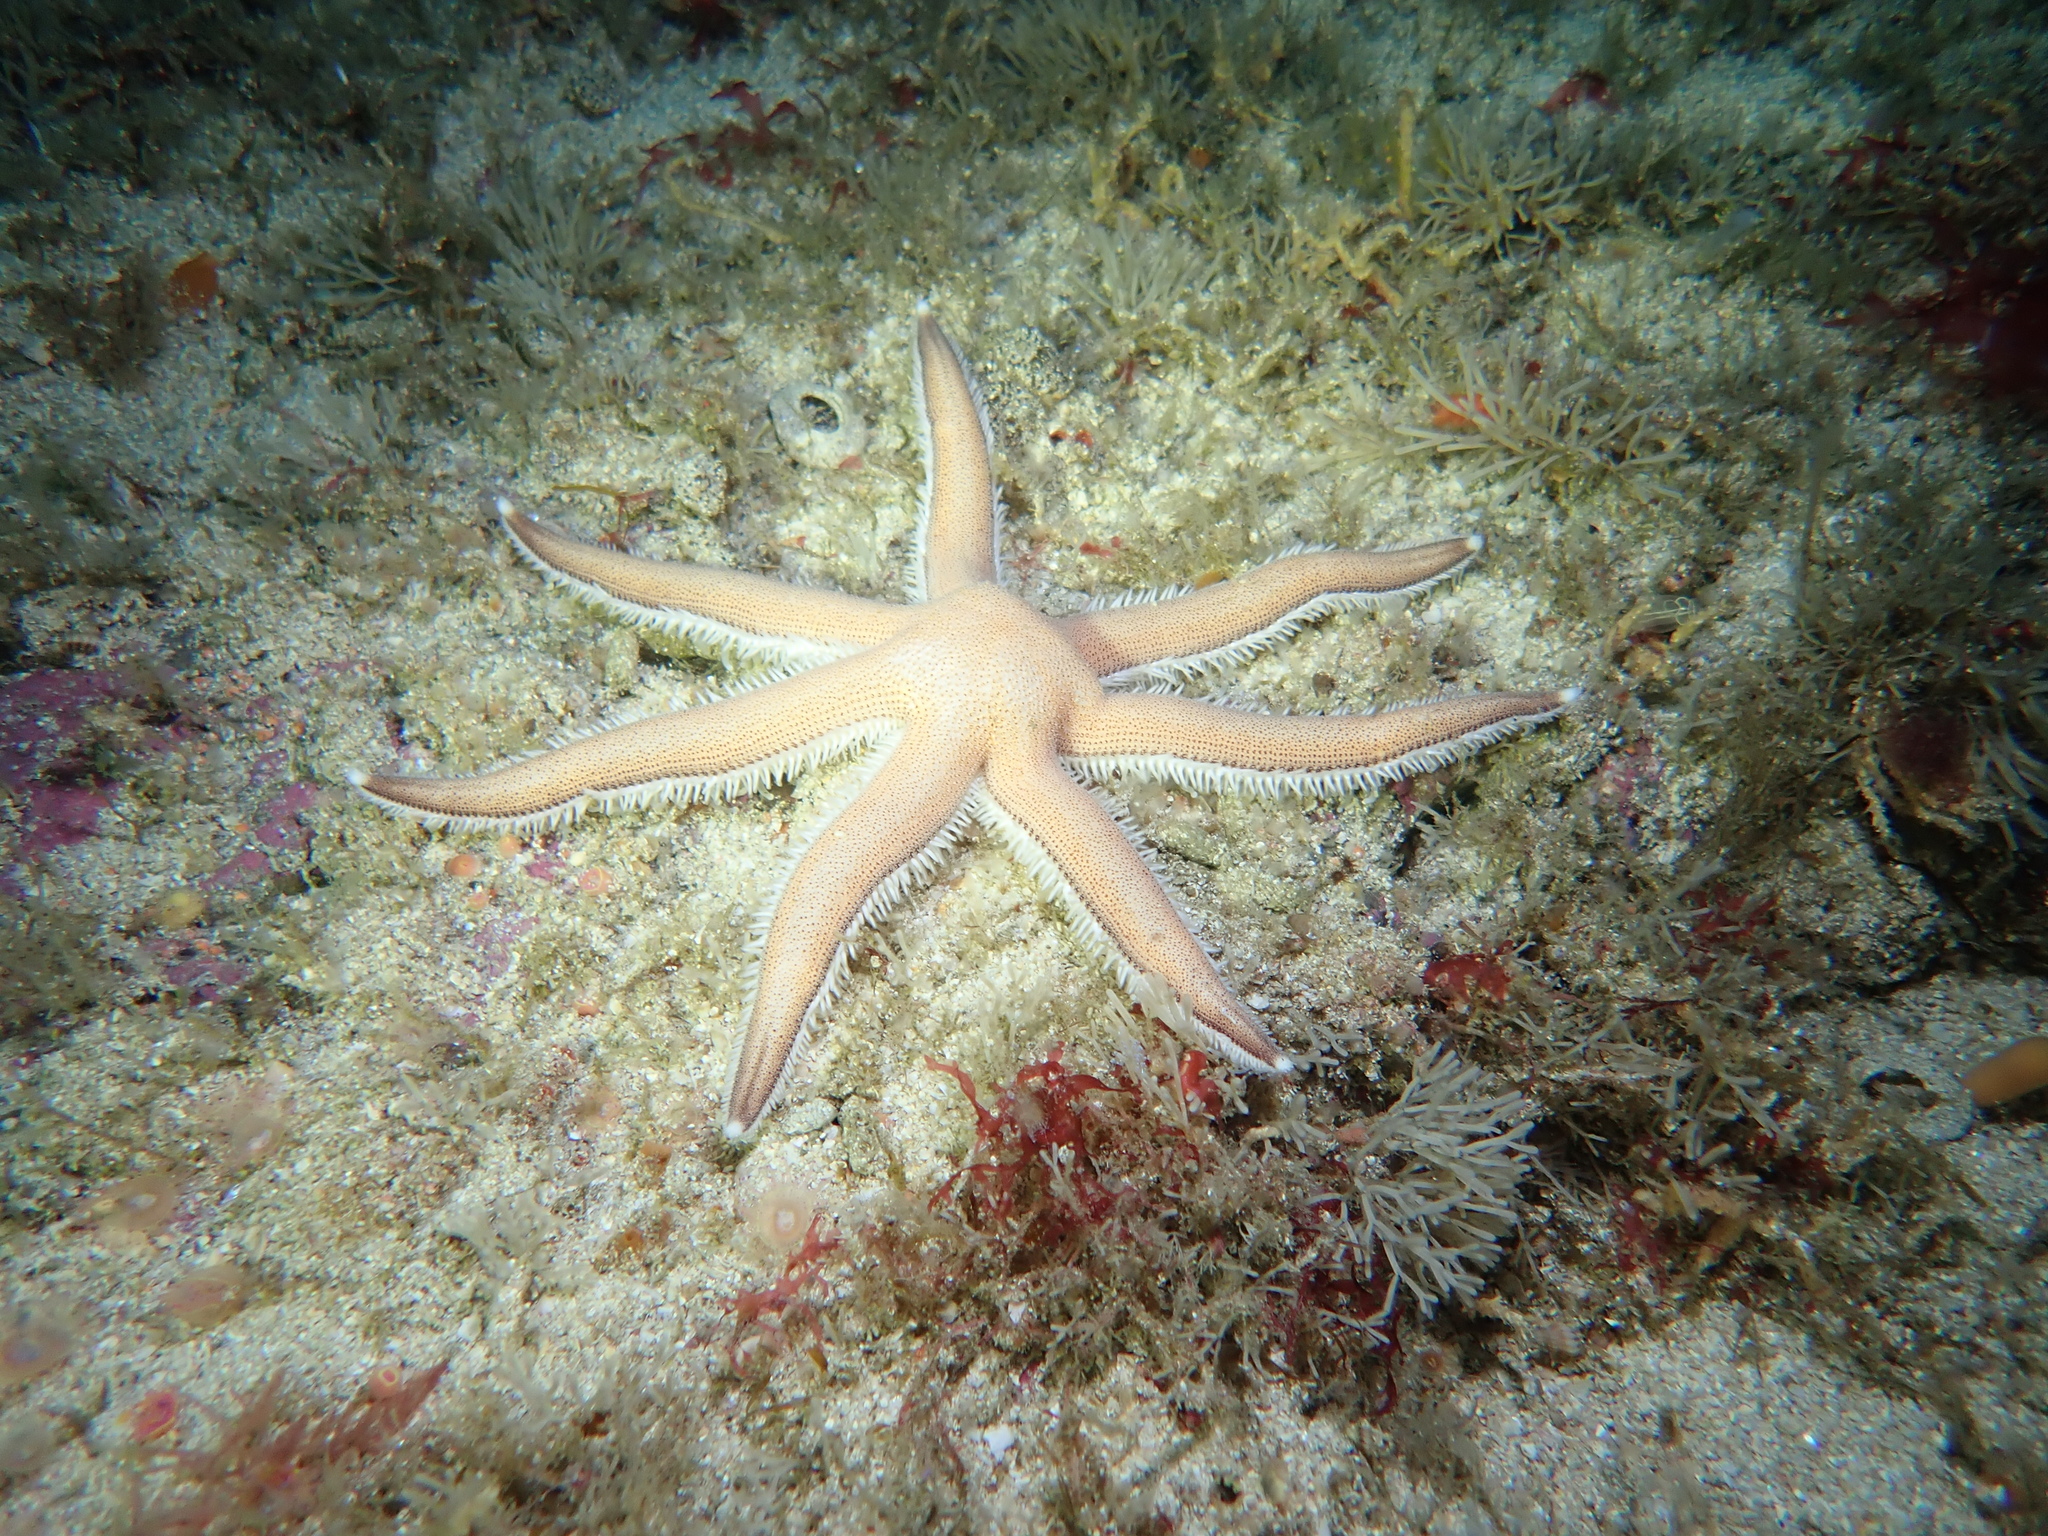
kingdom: Animalia
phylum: Echinodermata
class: Asteroidea
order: Paxillosida
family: Luidiidae
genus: Luidia
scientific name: Luidia ciliaris
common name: Seven-armed starfish
